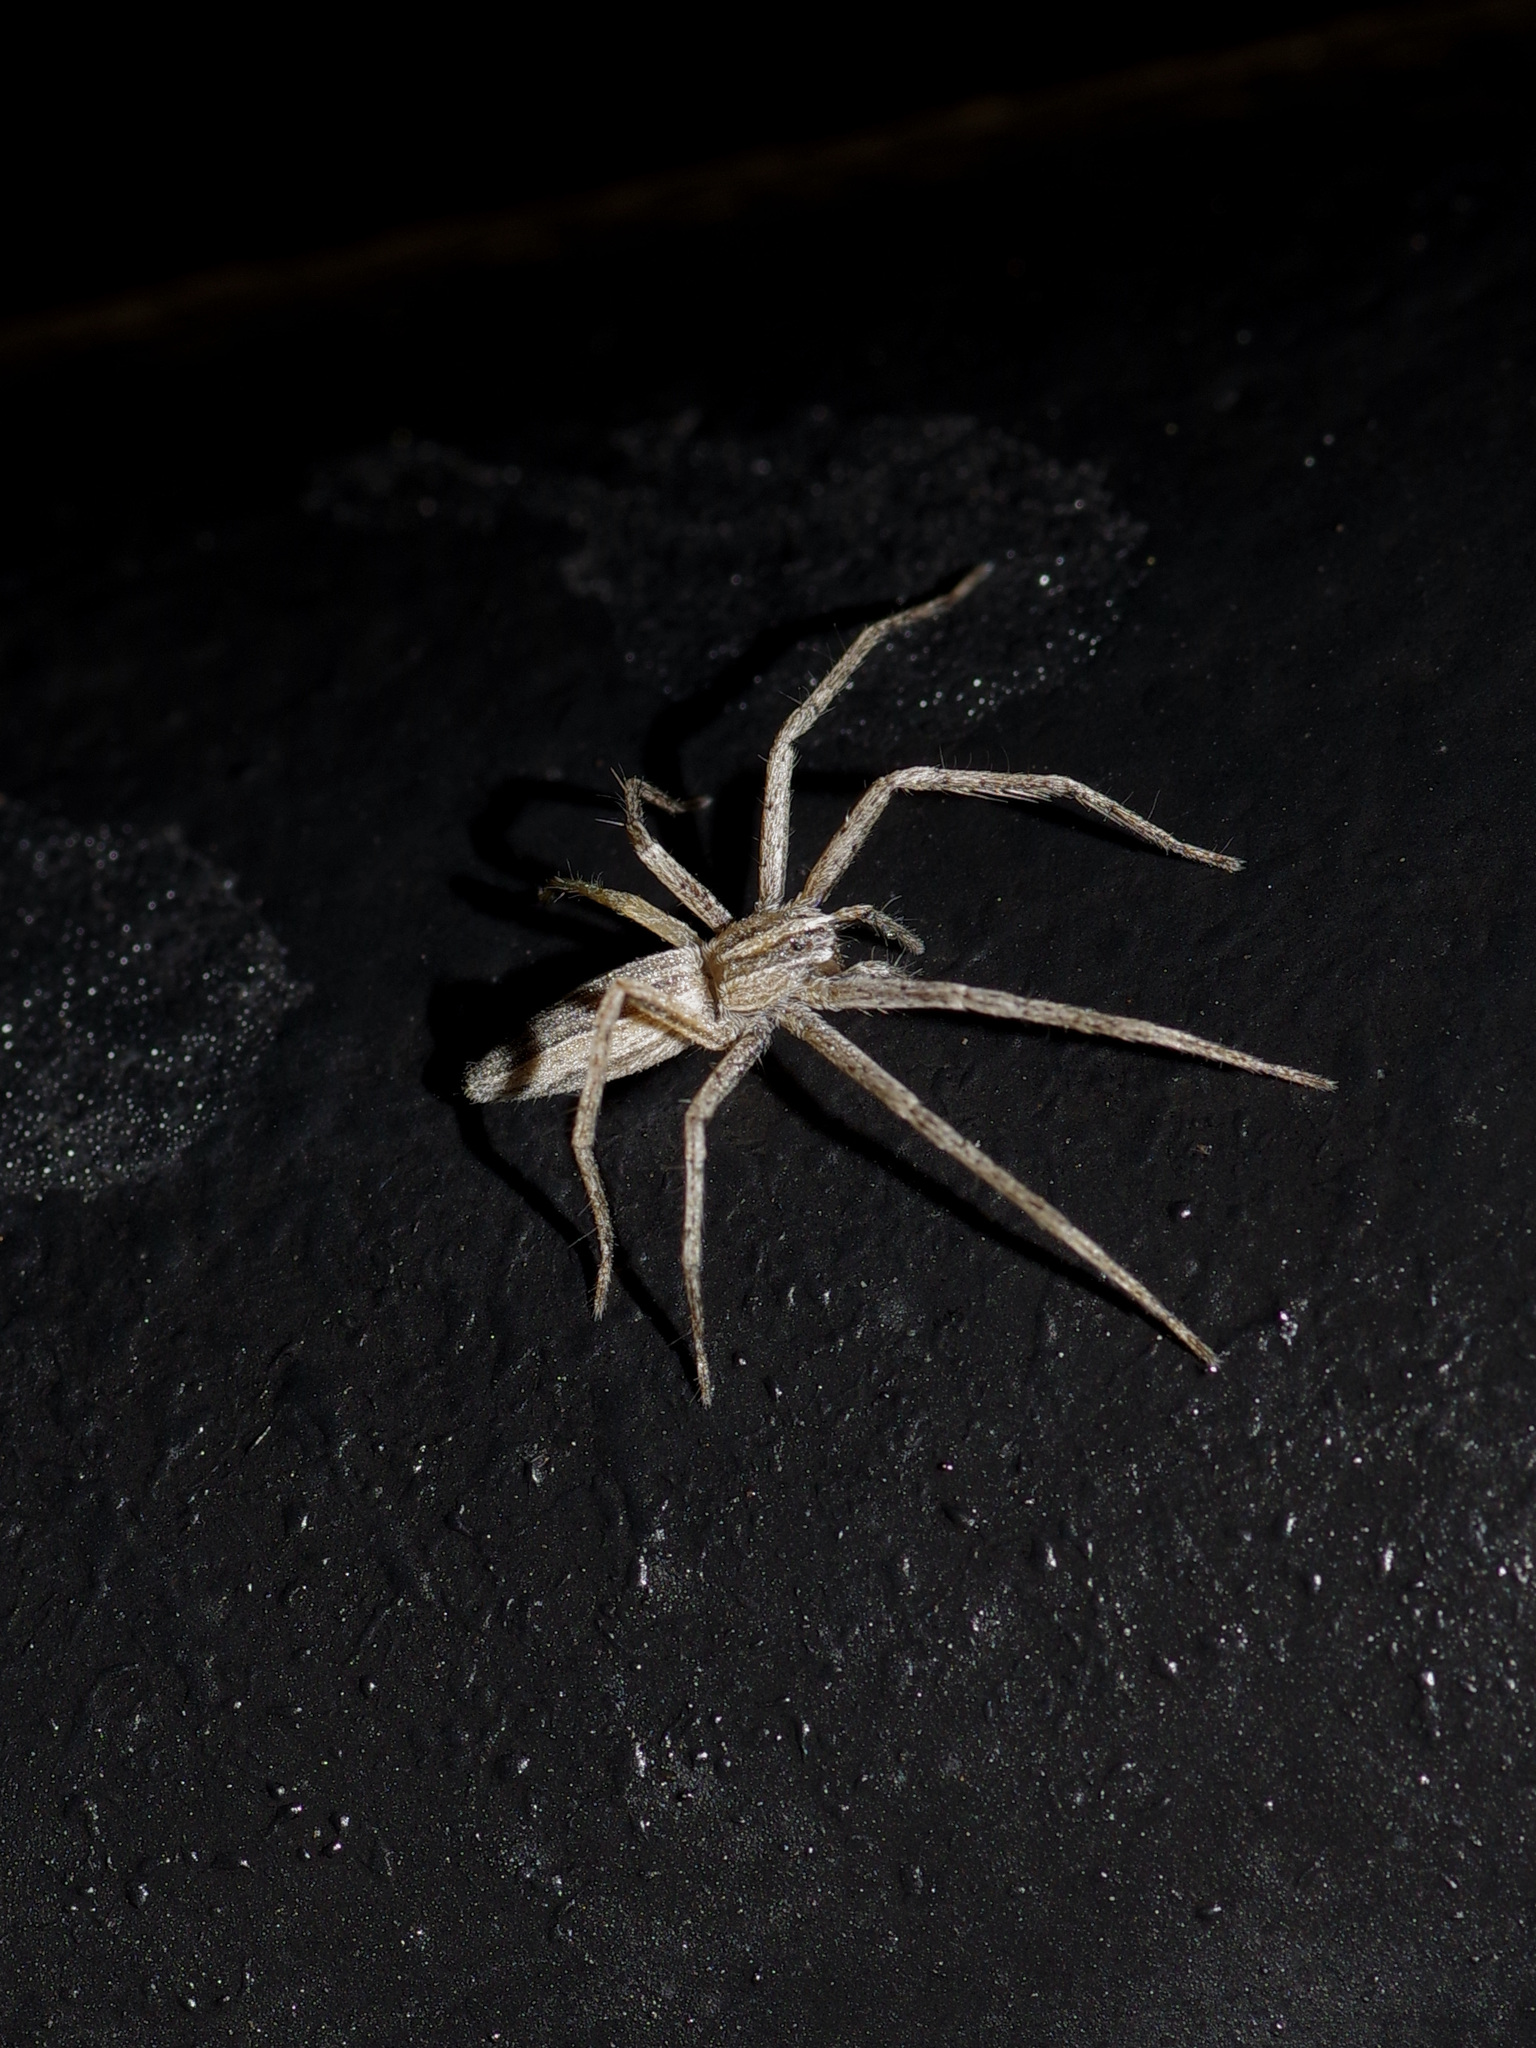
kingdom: Animalia
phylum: Arthropoda
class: Arachnida
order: Araneae
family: Pisauridae
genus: Pisaurina
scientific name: Pisaurina dubia
